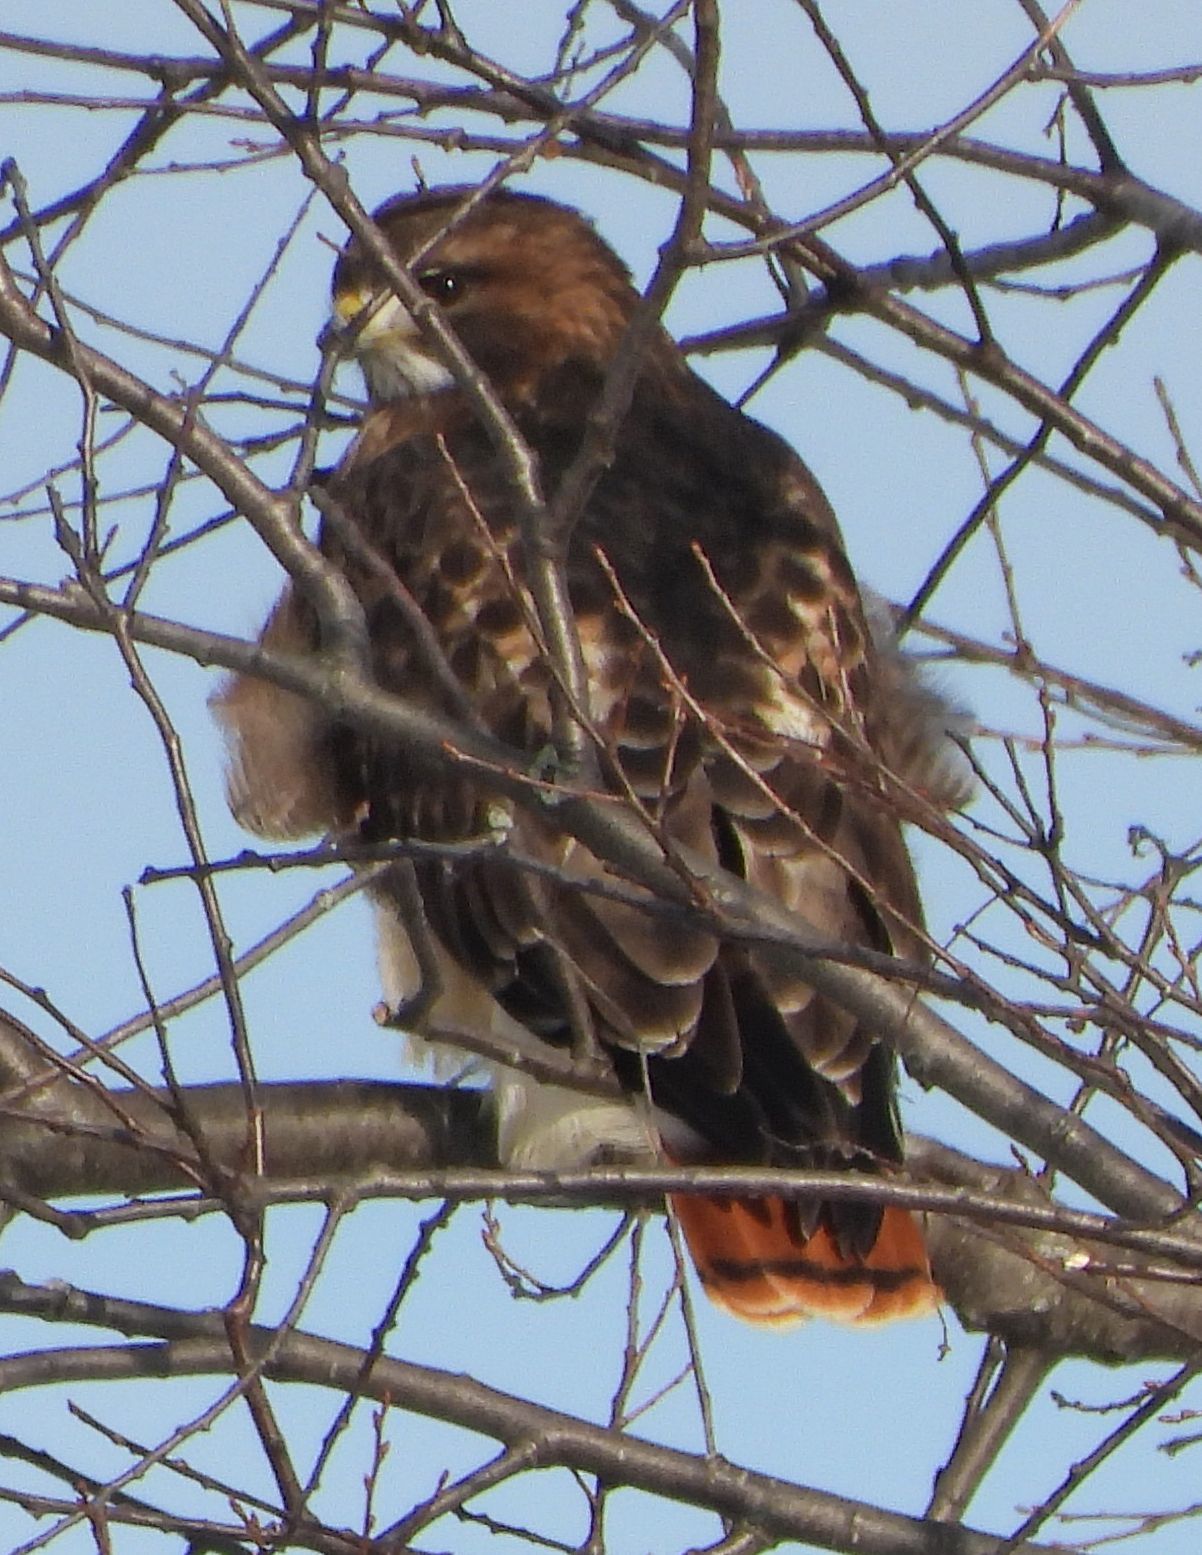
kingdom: Animalia
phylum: Chordata
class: Aves
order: Accipitriformes
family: Accipitridae
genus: Buteo
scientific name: Buteo jamaicensis
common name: Red-tailed hawk
